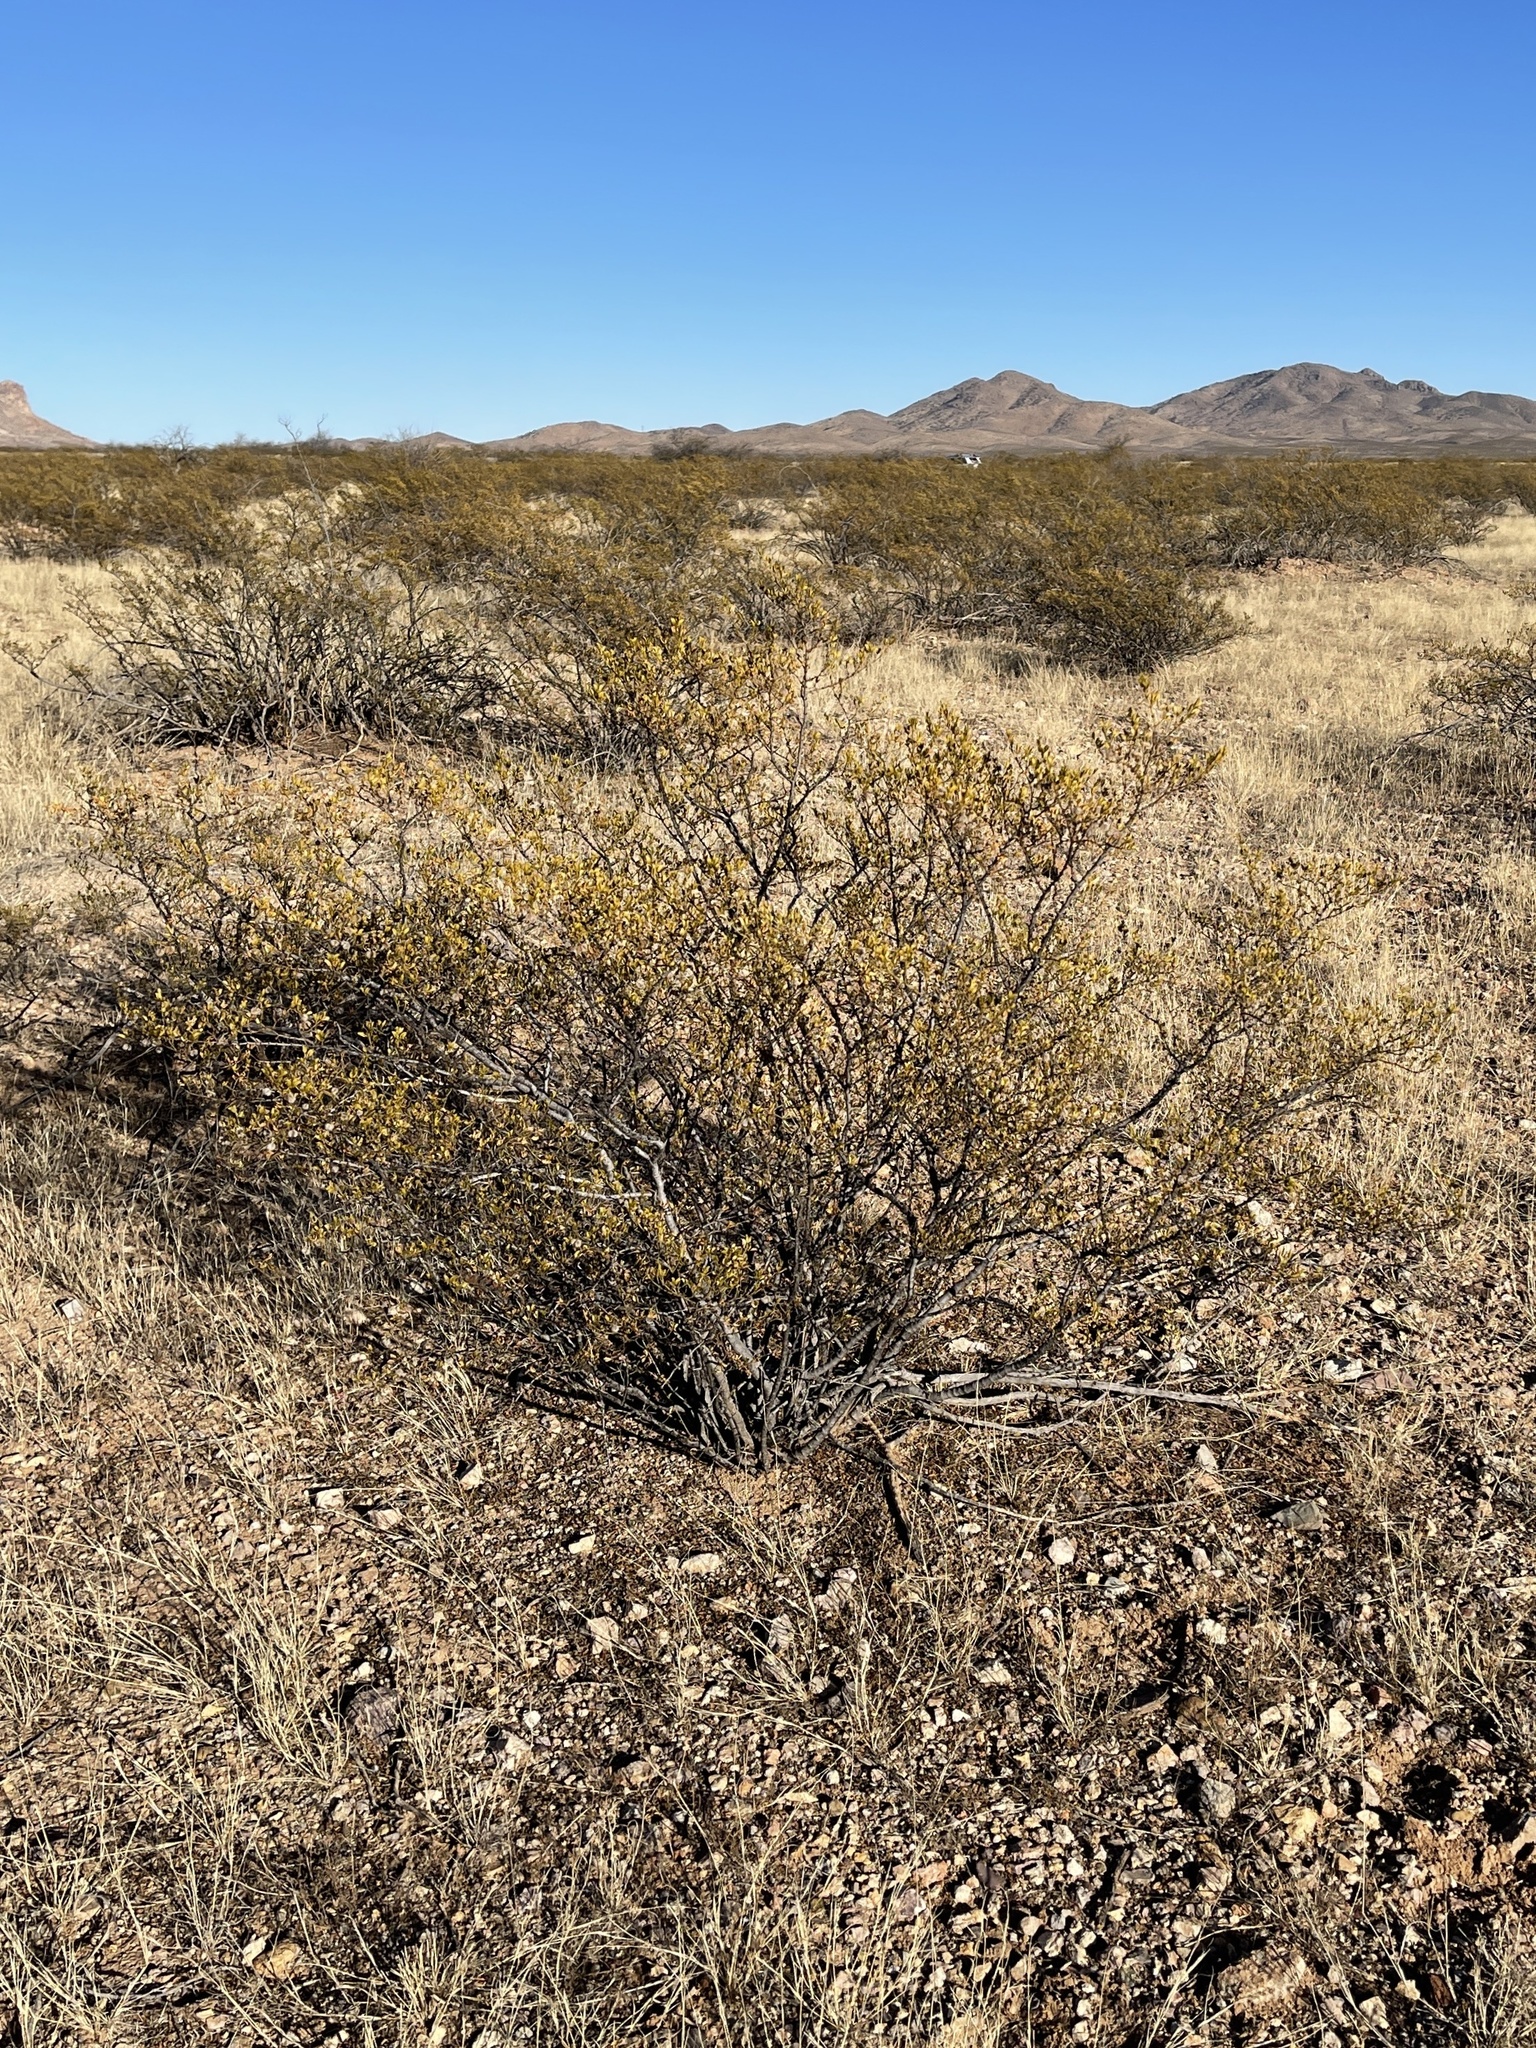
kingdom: Plantae
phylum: Tracheophyta
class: Magnoliopsida
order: Zygophyllales
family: Zygophyllaceae
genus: Larrea
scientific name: Larrea tridentata
